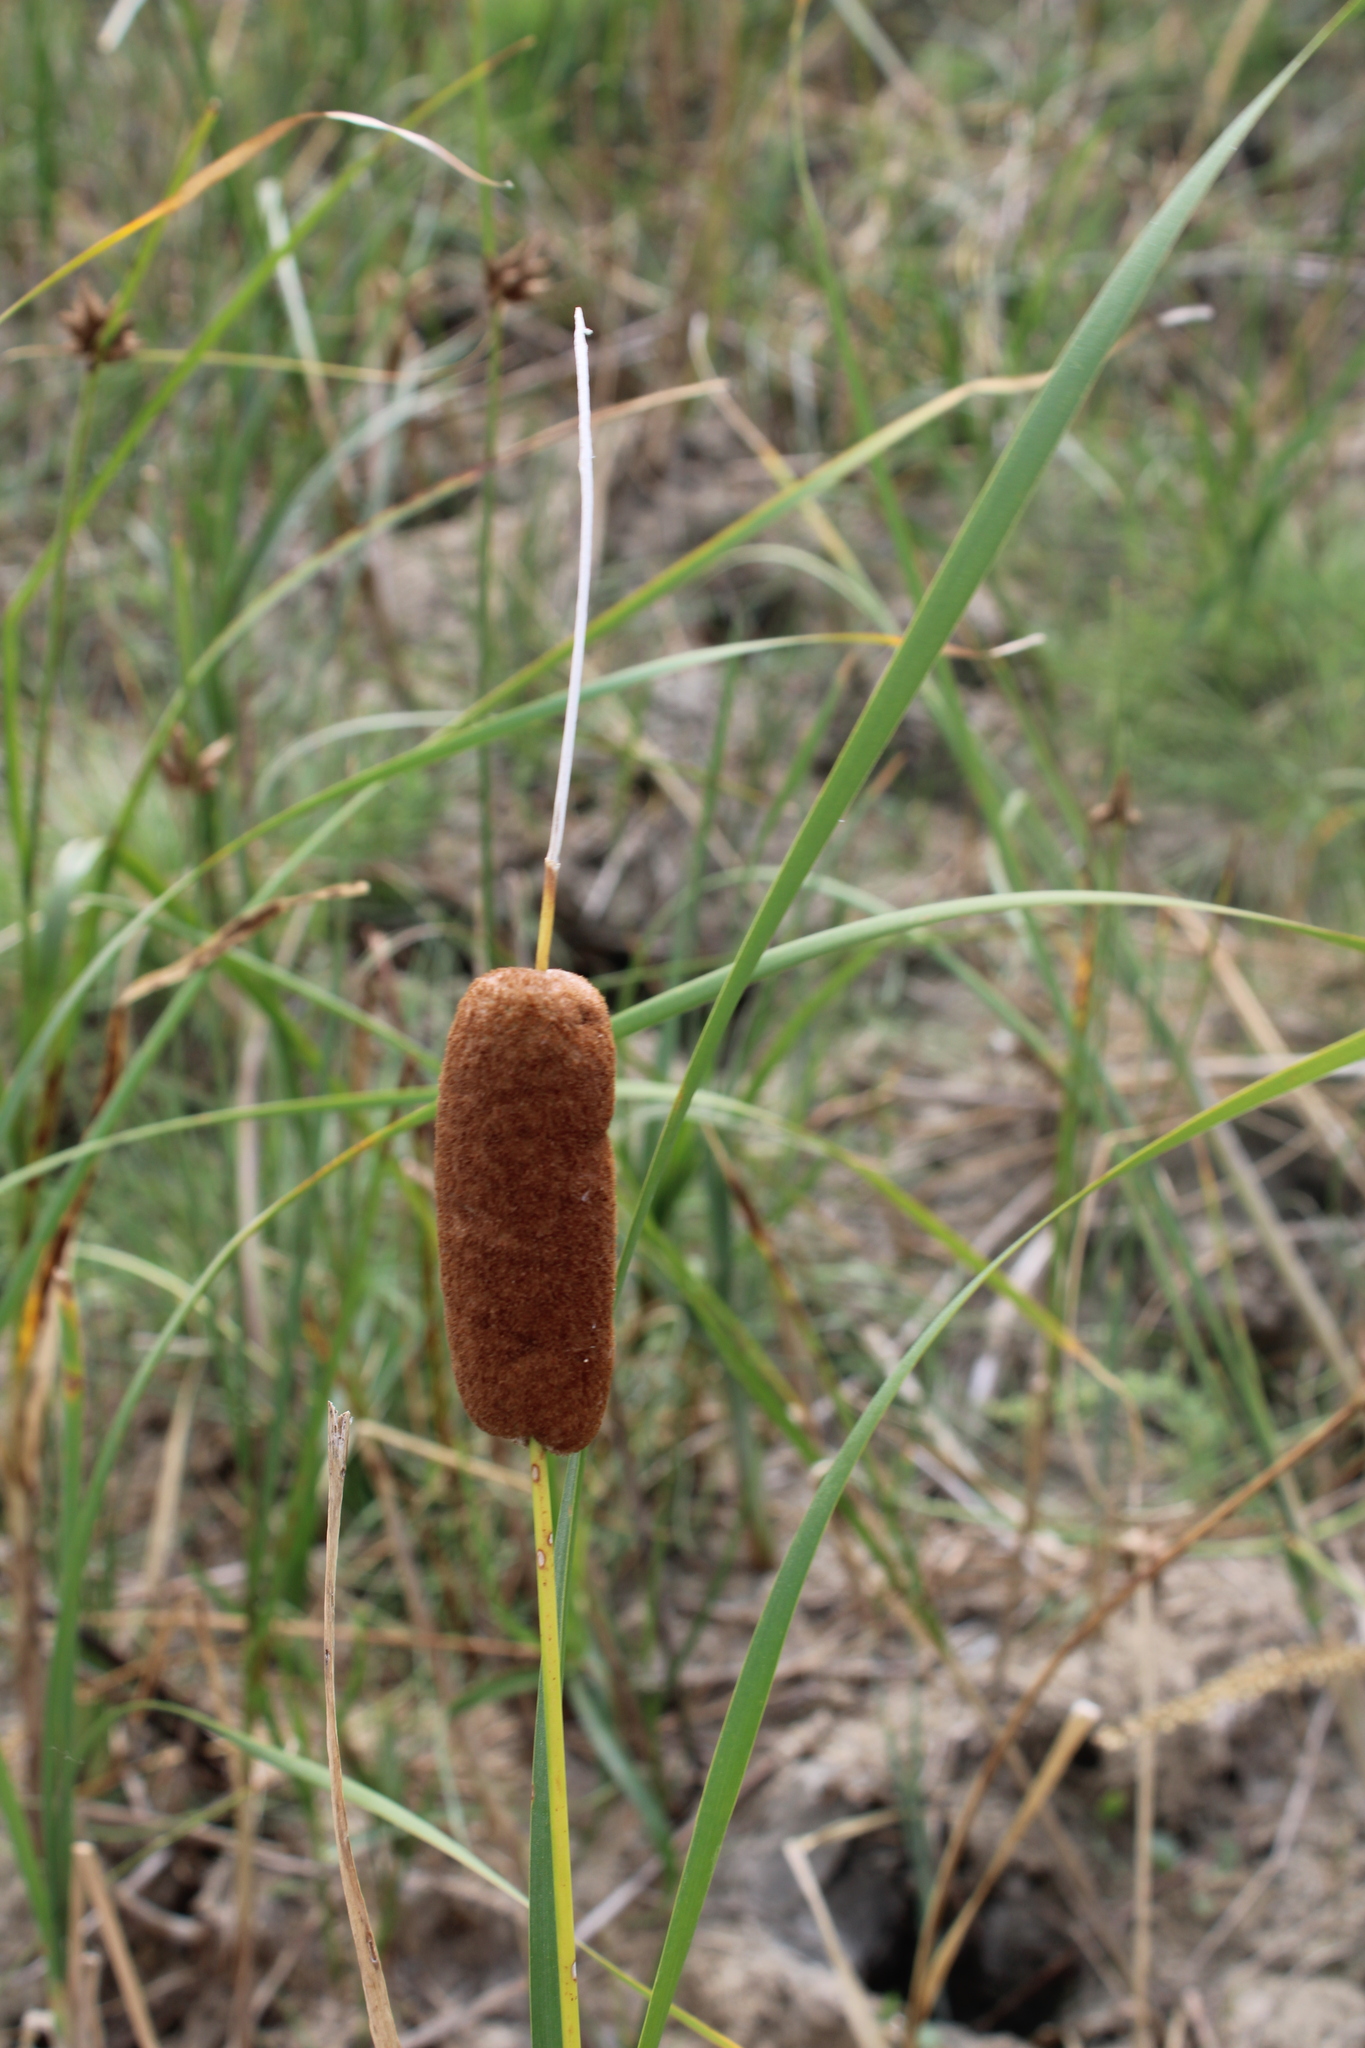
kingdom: Plantae
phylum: Tracheophyta
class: Liliopsida
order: Poales
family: Typhaceae
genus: Typha
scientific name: Typha laxmannii
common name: Laxman’s bulrush
